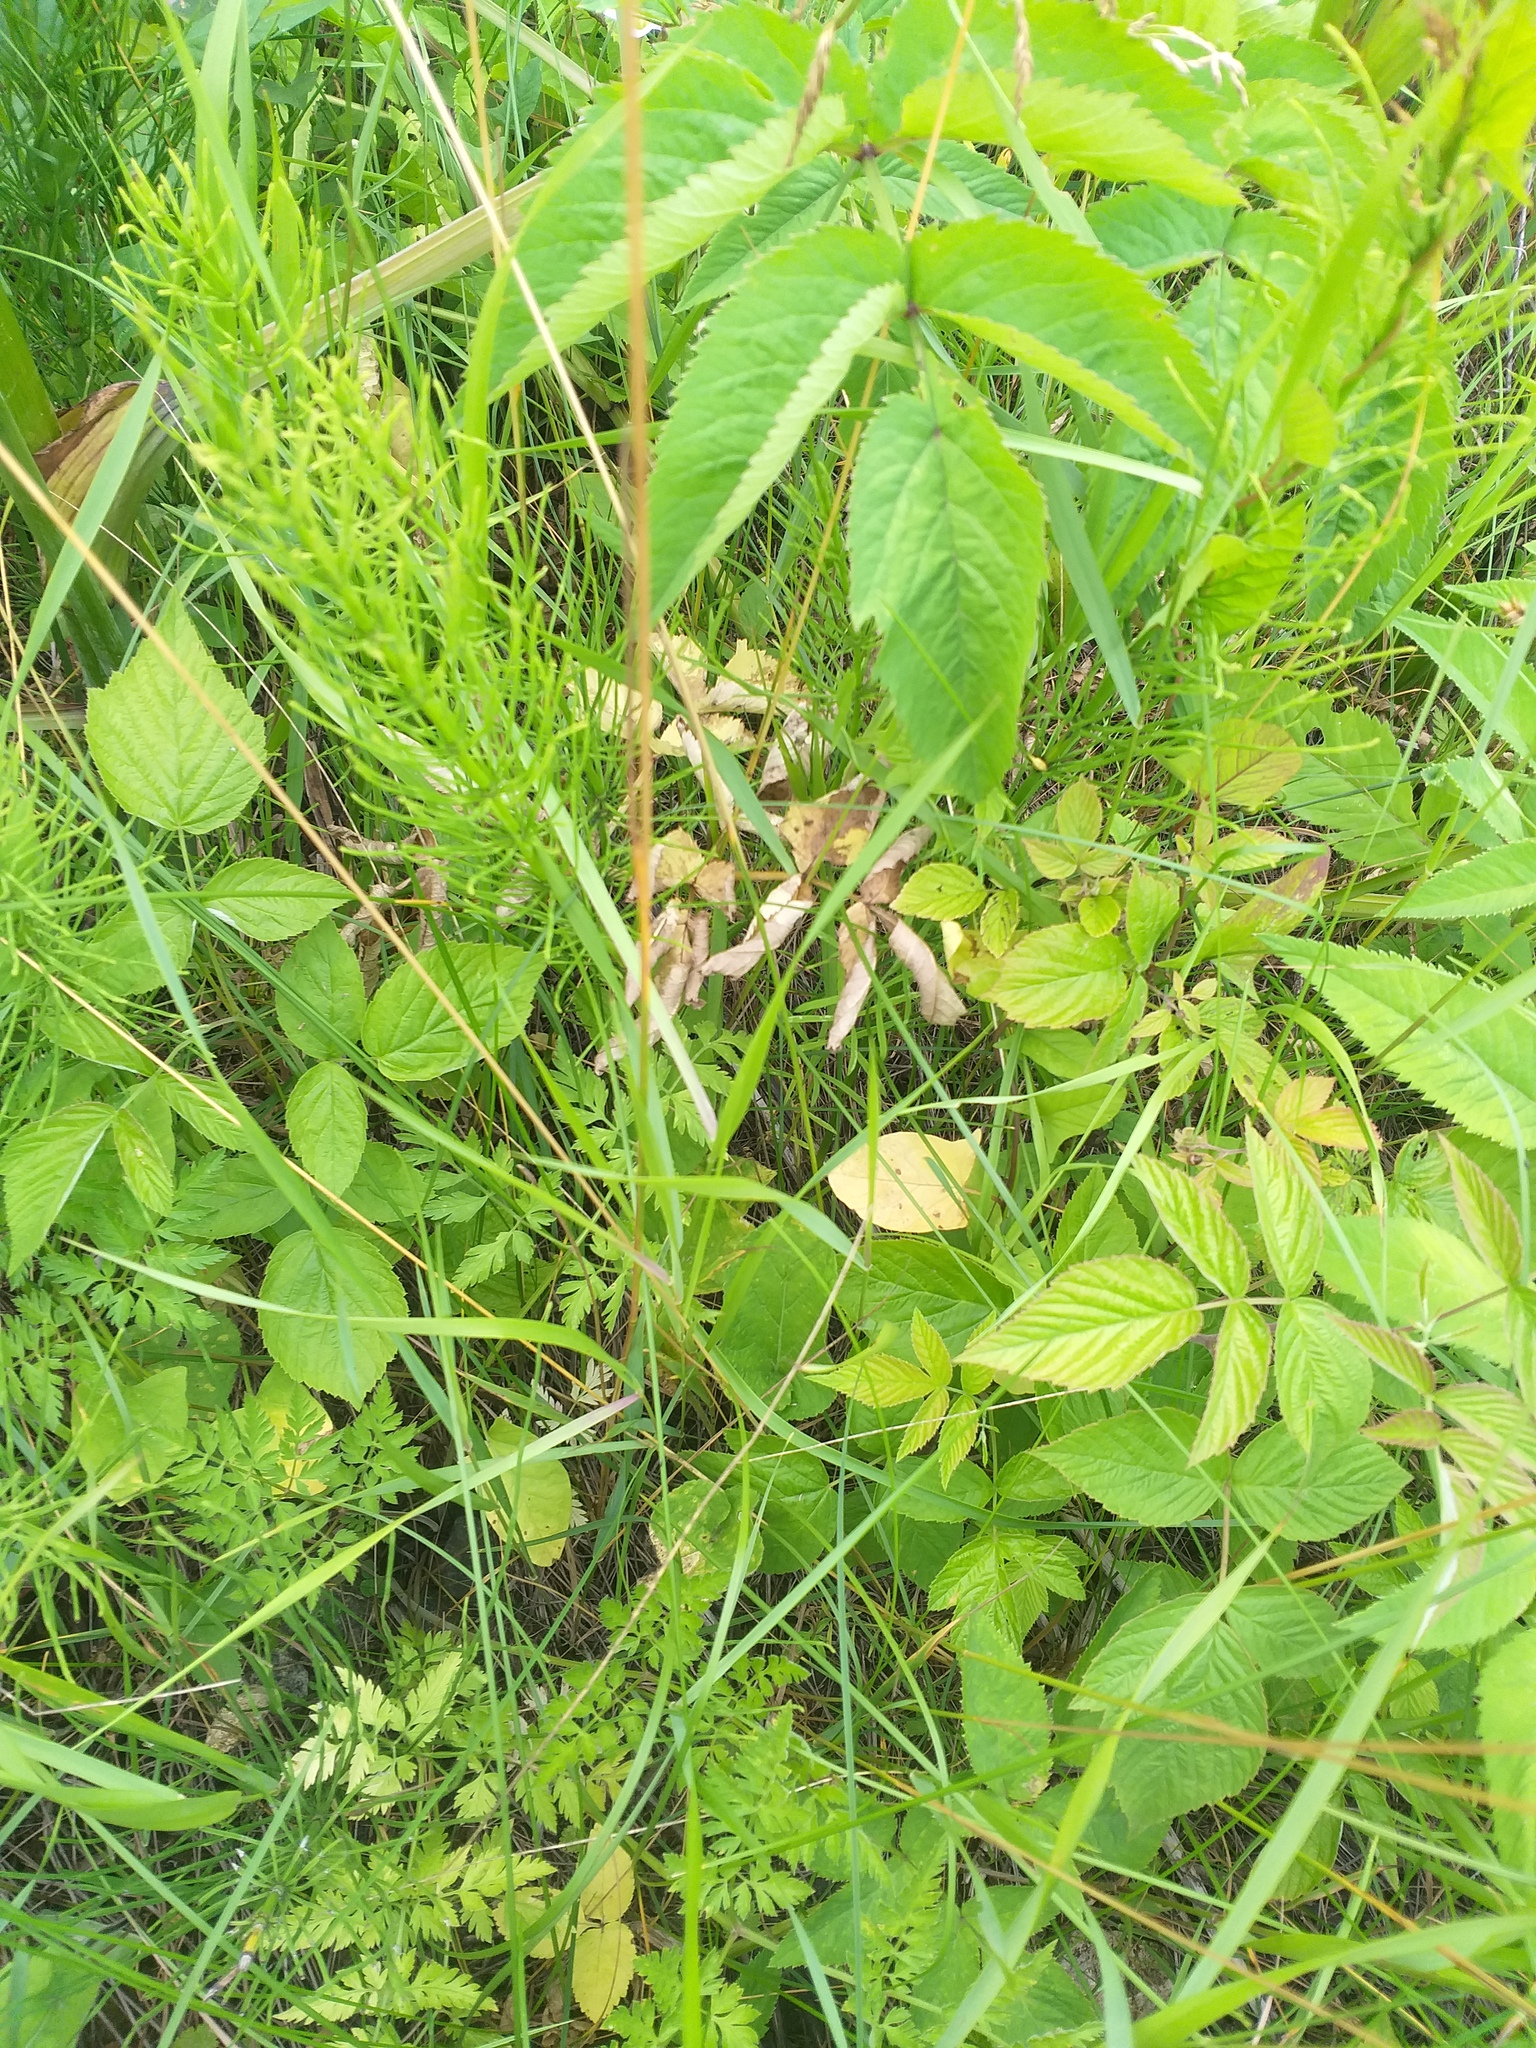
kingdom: Plantae
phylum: Tracheophyta
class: Liliopsida
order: Poales
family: Poaceae
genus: Poa
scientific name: Poa pratensis
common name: Kentucky bluegrass
